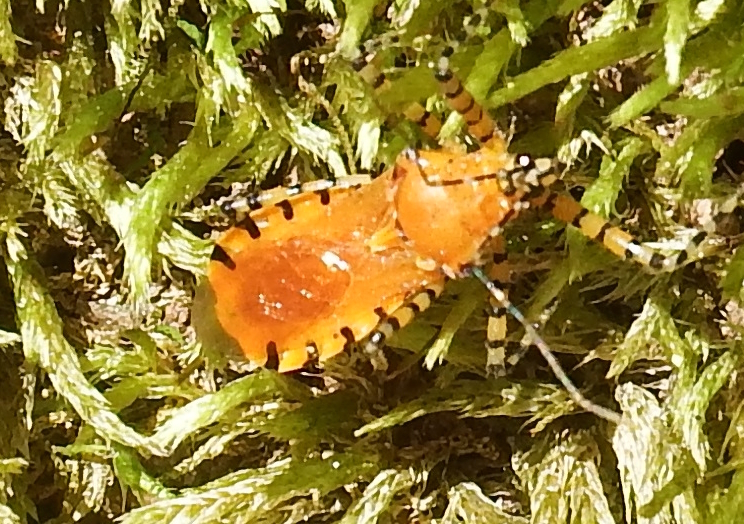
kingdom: Animalia
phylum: Arthropoda
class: Insecta
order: Hemiptera
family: Reduviidae
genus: Pselliopus
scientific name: Pselliopus barberi
